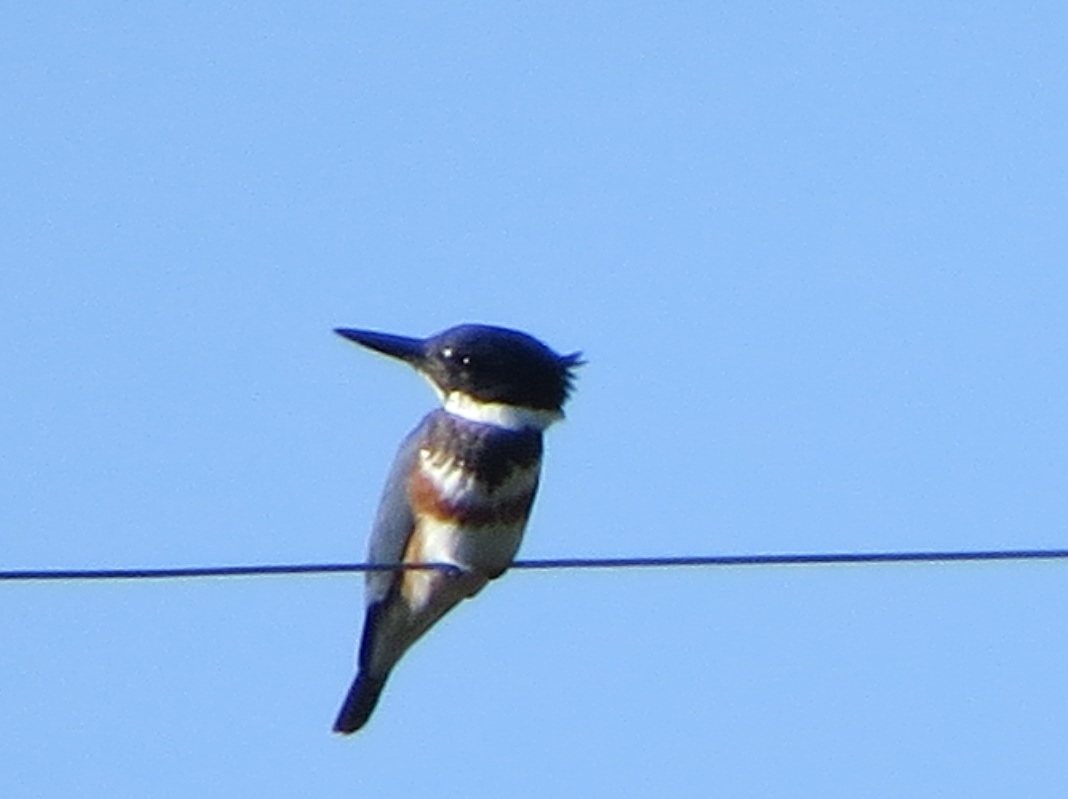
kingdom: Animalia
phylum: Chordata
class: Aves
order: Coraciiformes
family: Alcedinidae
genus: Megaceryle
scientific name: Megaceryle alcyon
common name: Belted kingfisher
